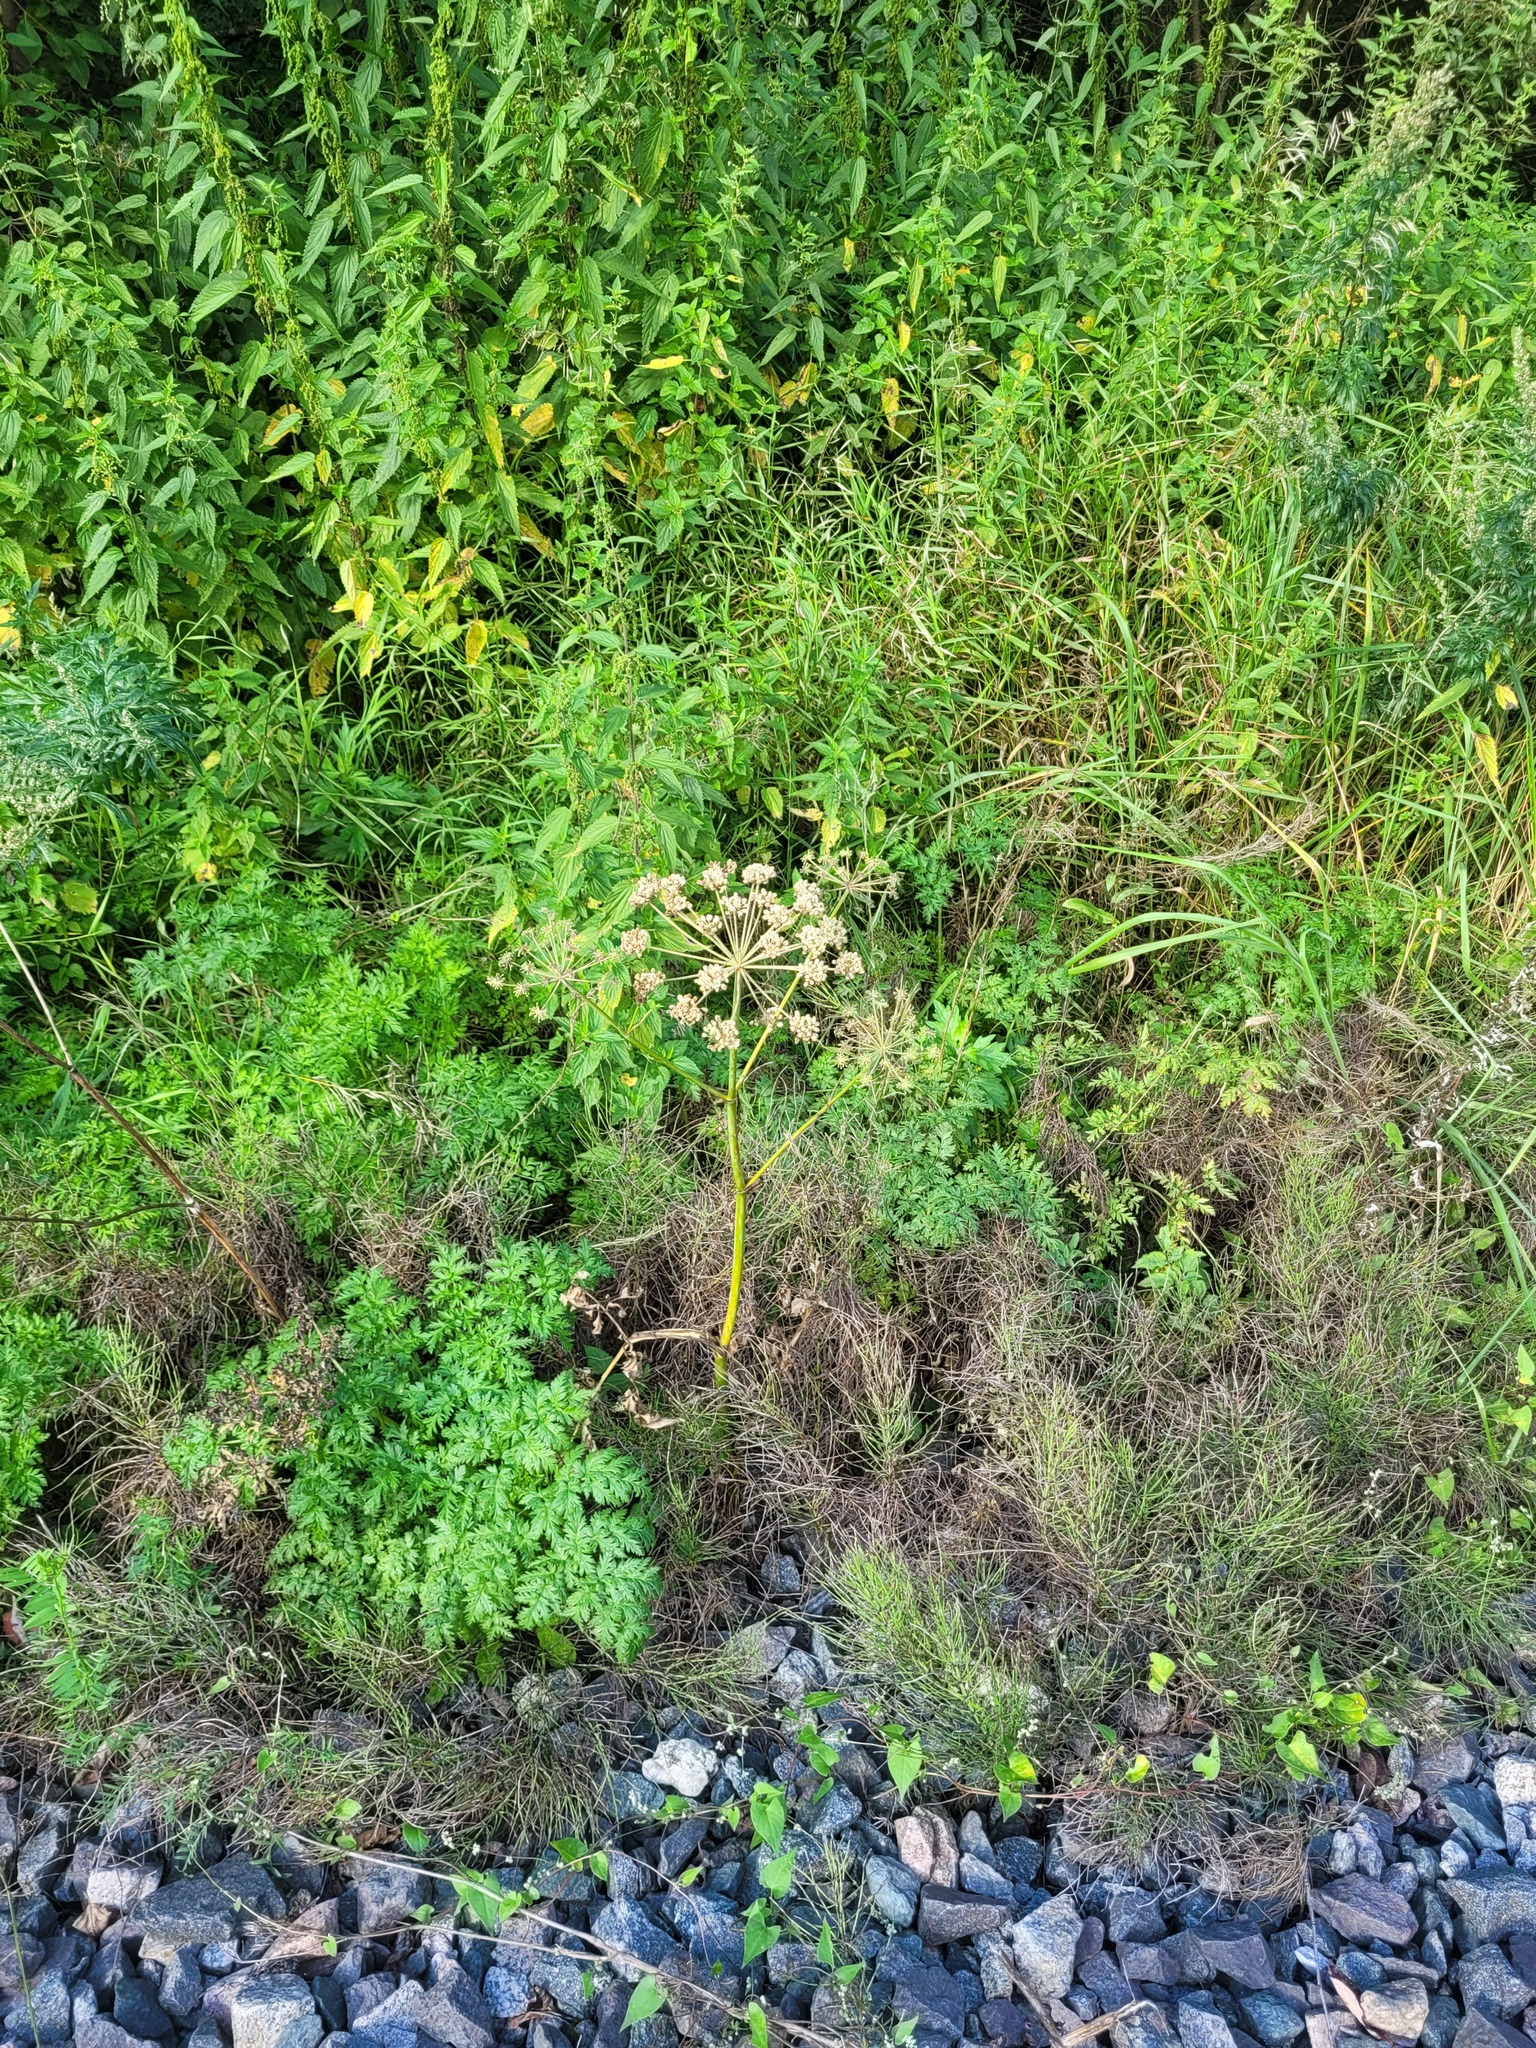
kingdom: Plantae
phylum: Tracheophyta
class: Magnoliopsida
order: Apiales
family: Apiaceae
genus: Angelica
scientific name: Angelica sylvestris
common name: Wild angelica
